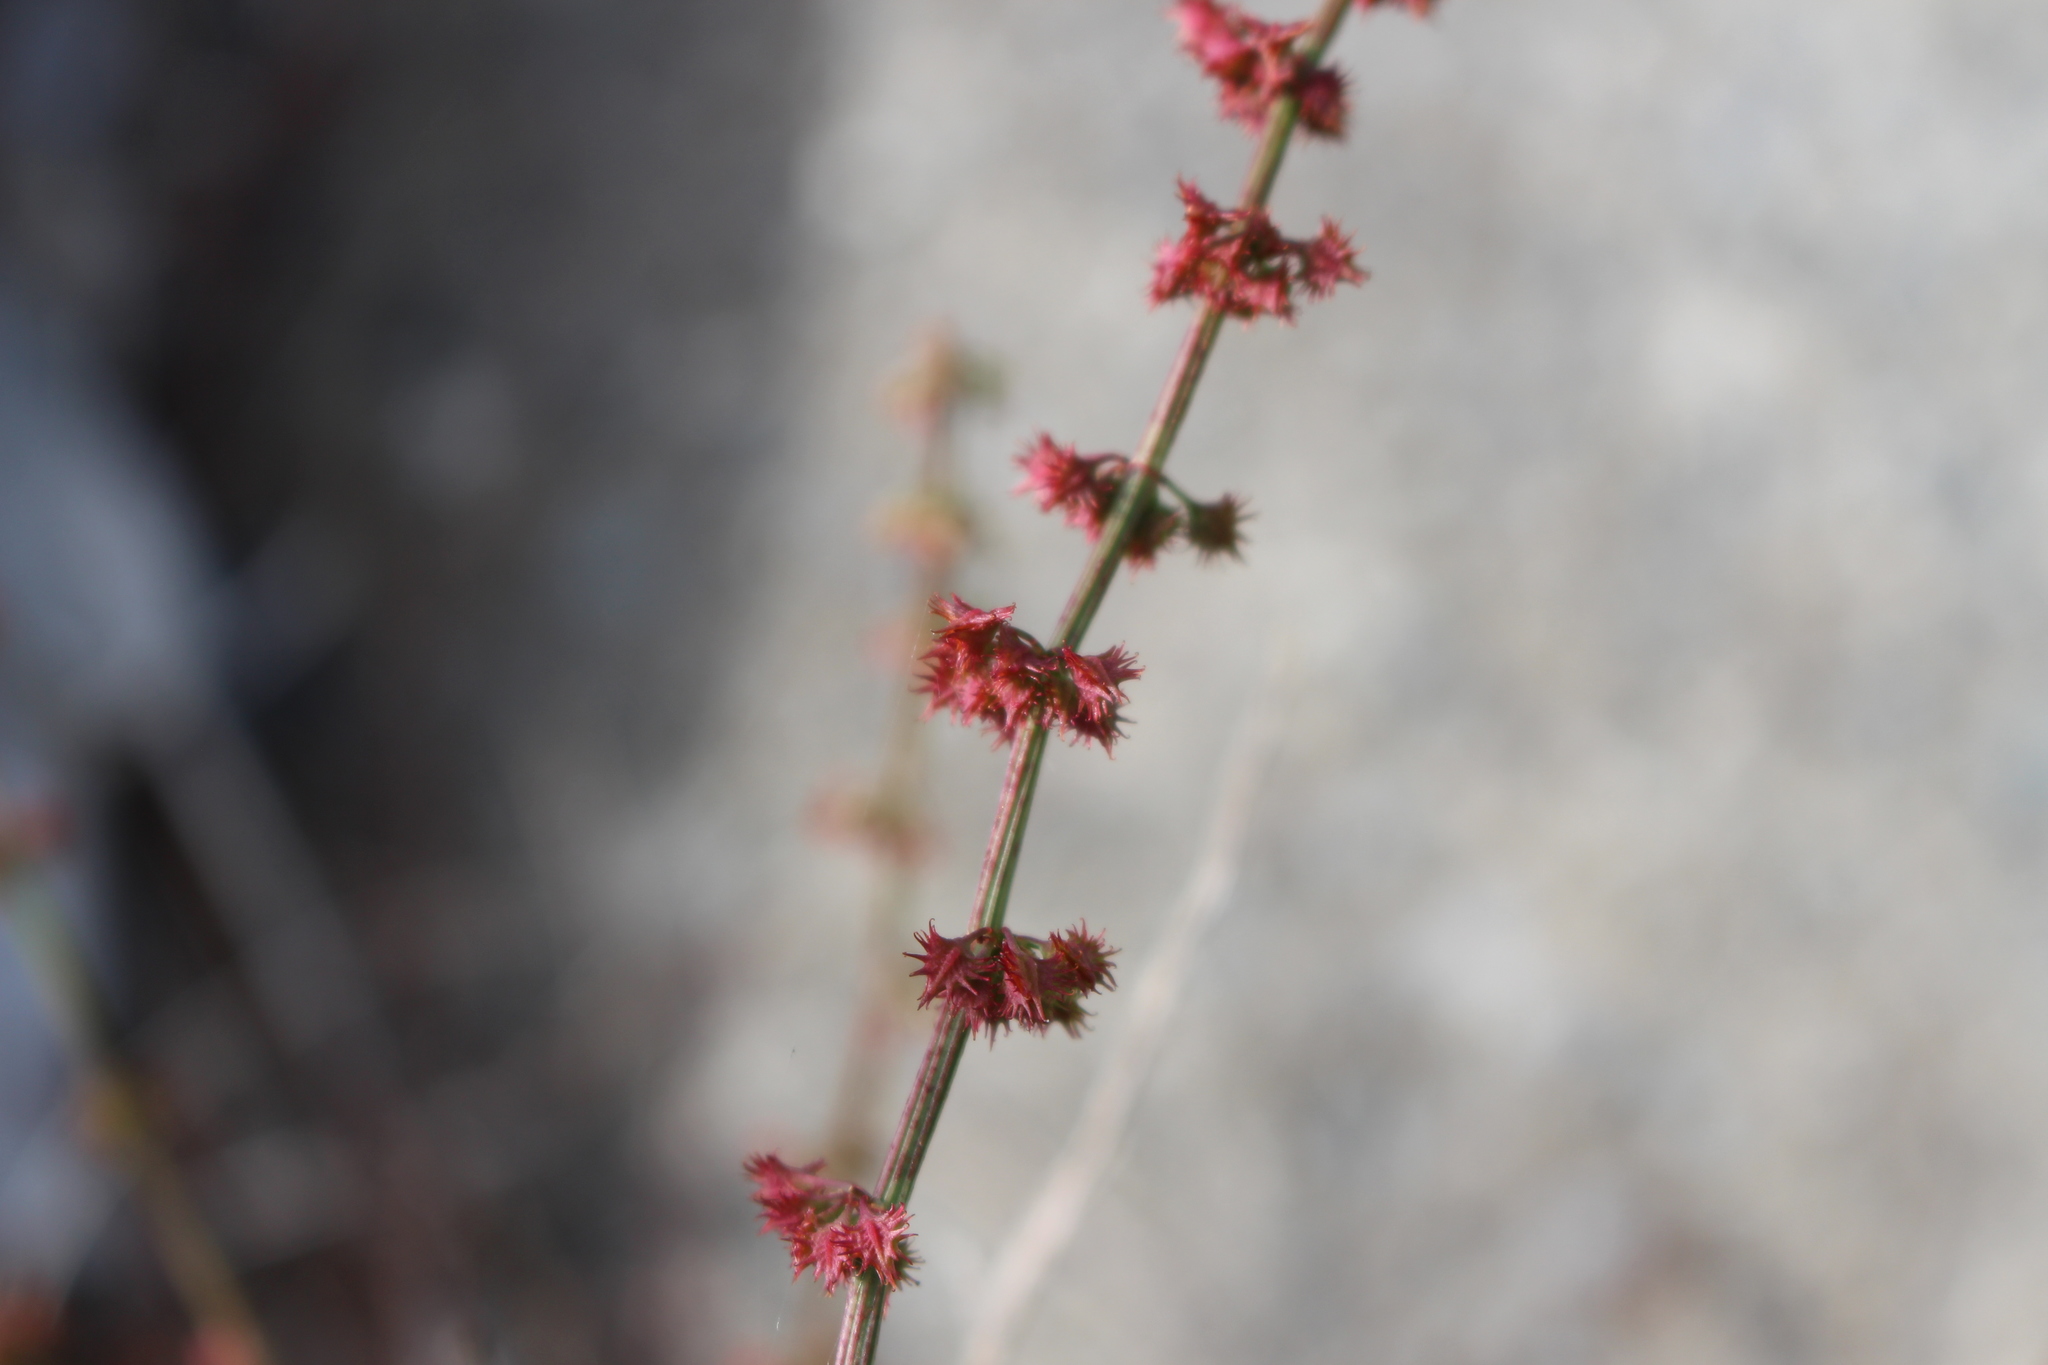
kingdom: Plantae
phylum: Tracheophyta
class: Magnoliopsida
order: Caryophyllales
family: Polygonaceae
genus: Rumex
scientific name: Rumex brownii
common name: Hooked dock
